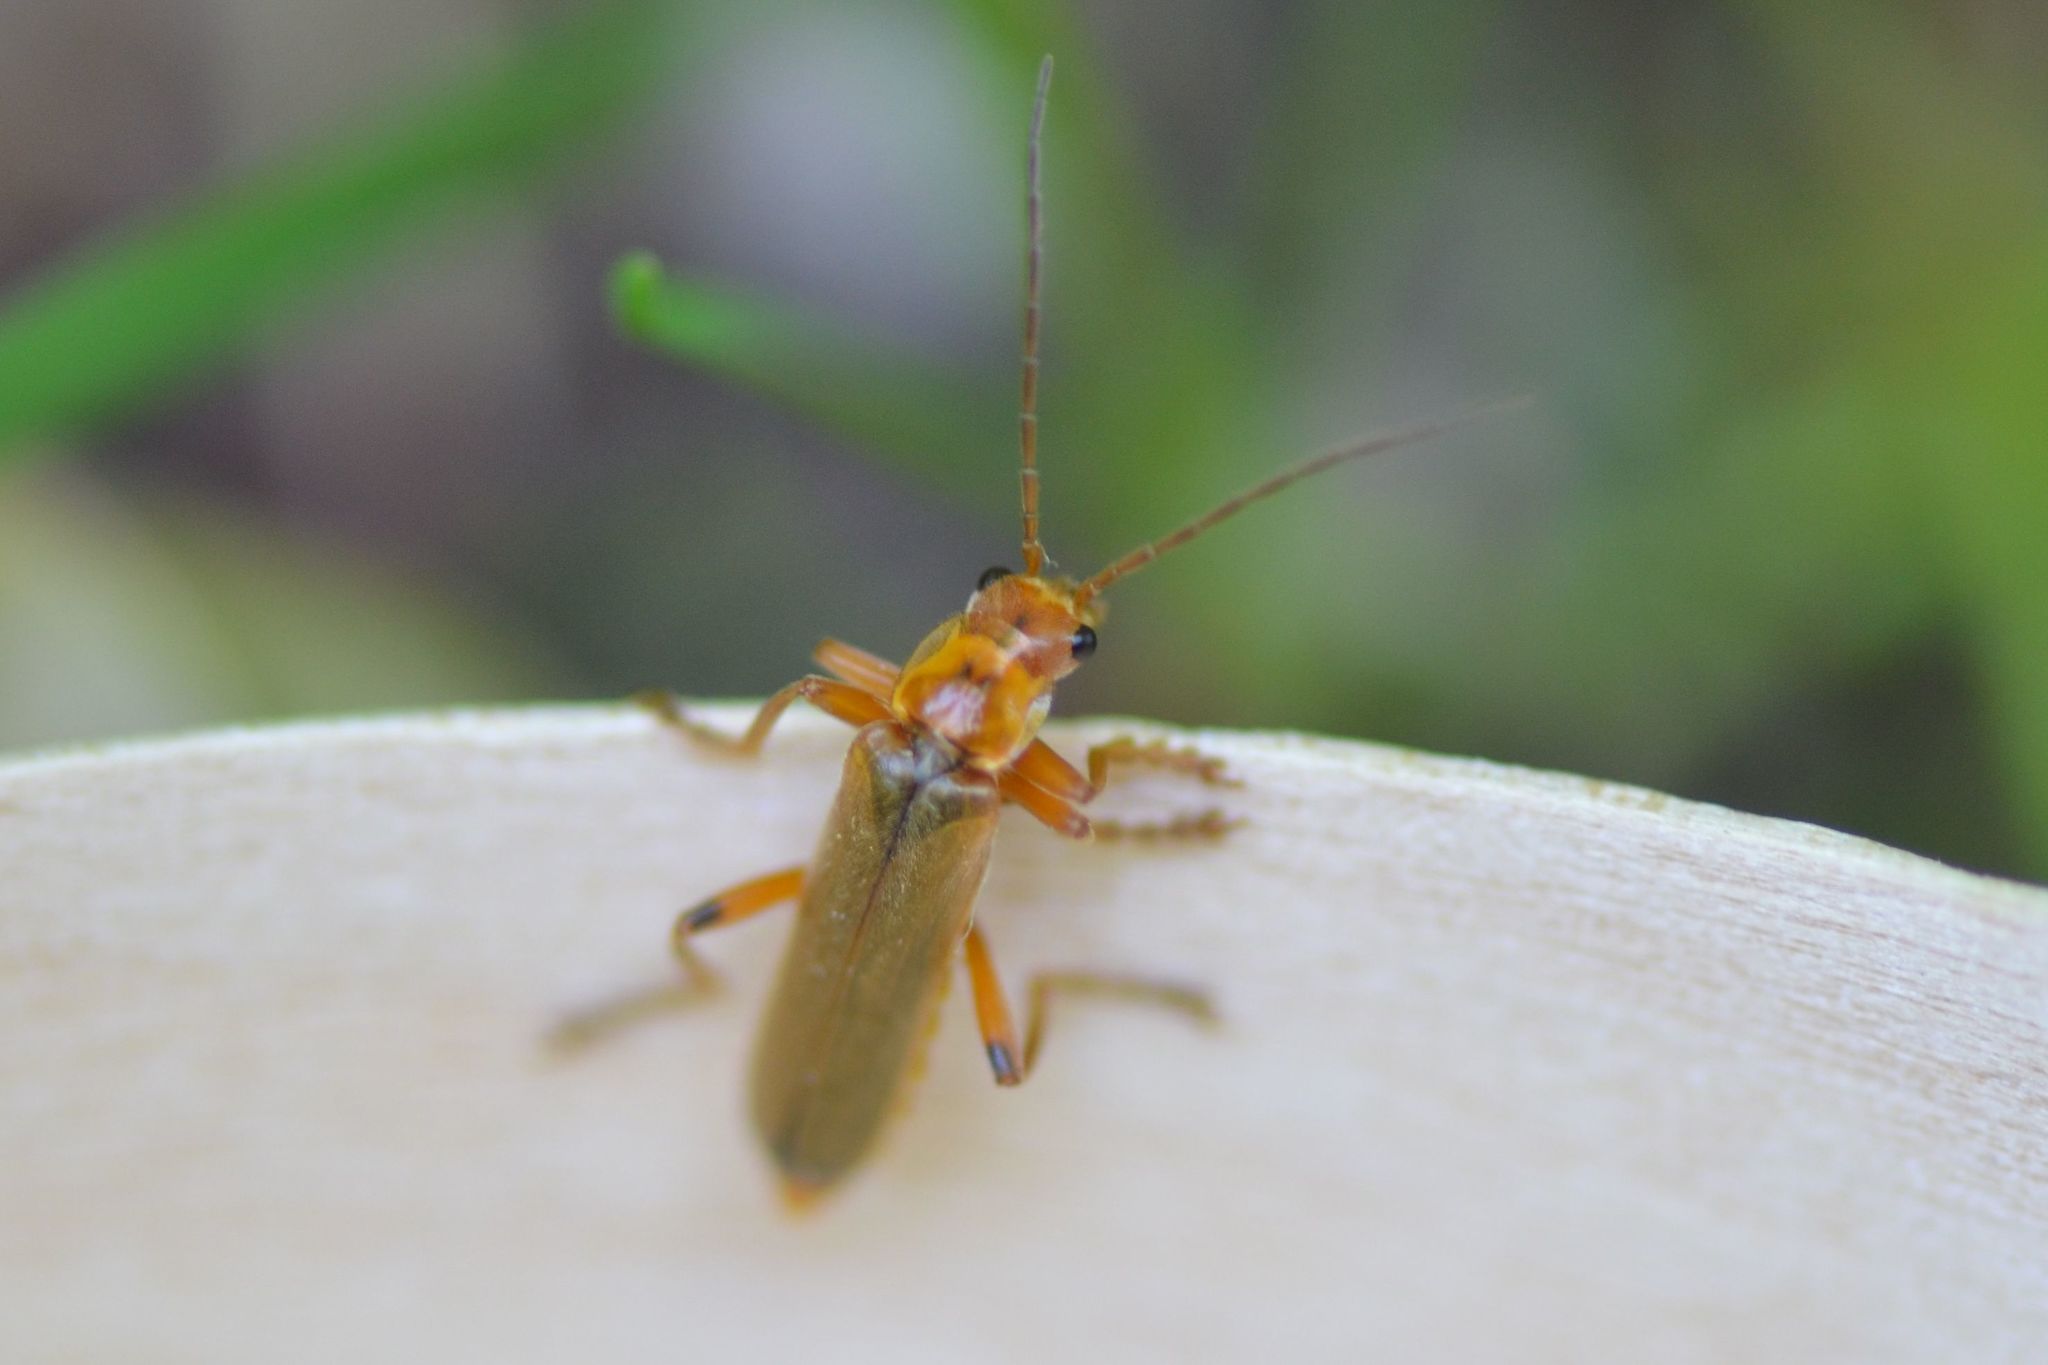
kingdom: Animalia
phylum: Arthropoda
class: Insecta
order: Coleoptera
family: Cantharidae
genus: Metacantharis
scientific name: Metacantharis discoidea
